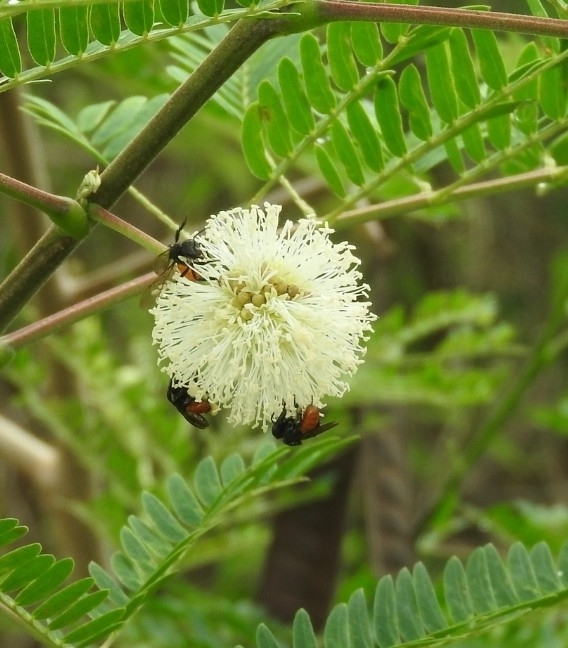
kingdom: Animalia
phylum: Arthropoda
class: Insecta
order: Hymenoptera
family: Apidae
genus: Trigona
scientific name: Trigona fulviventris
